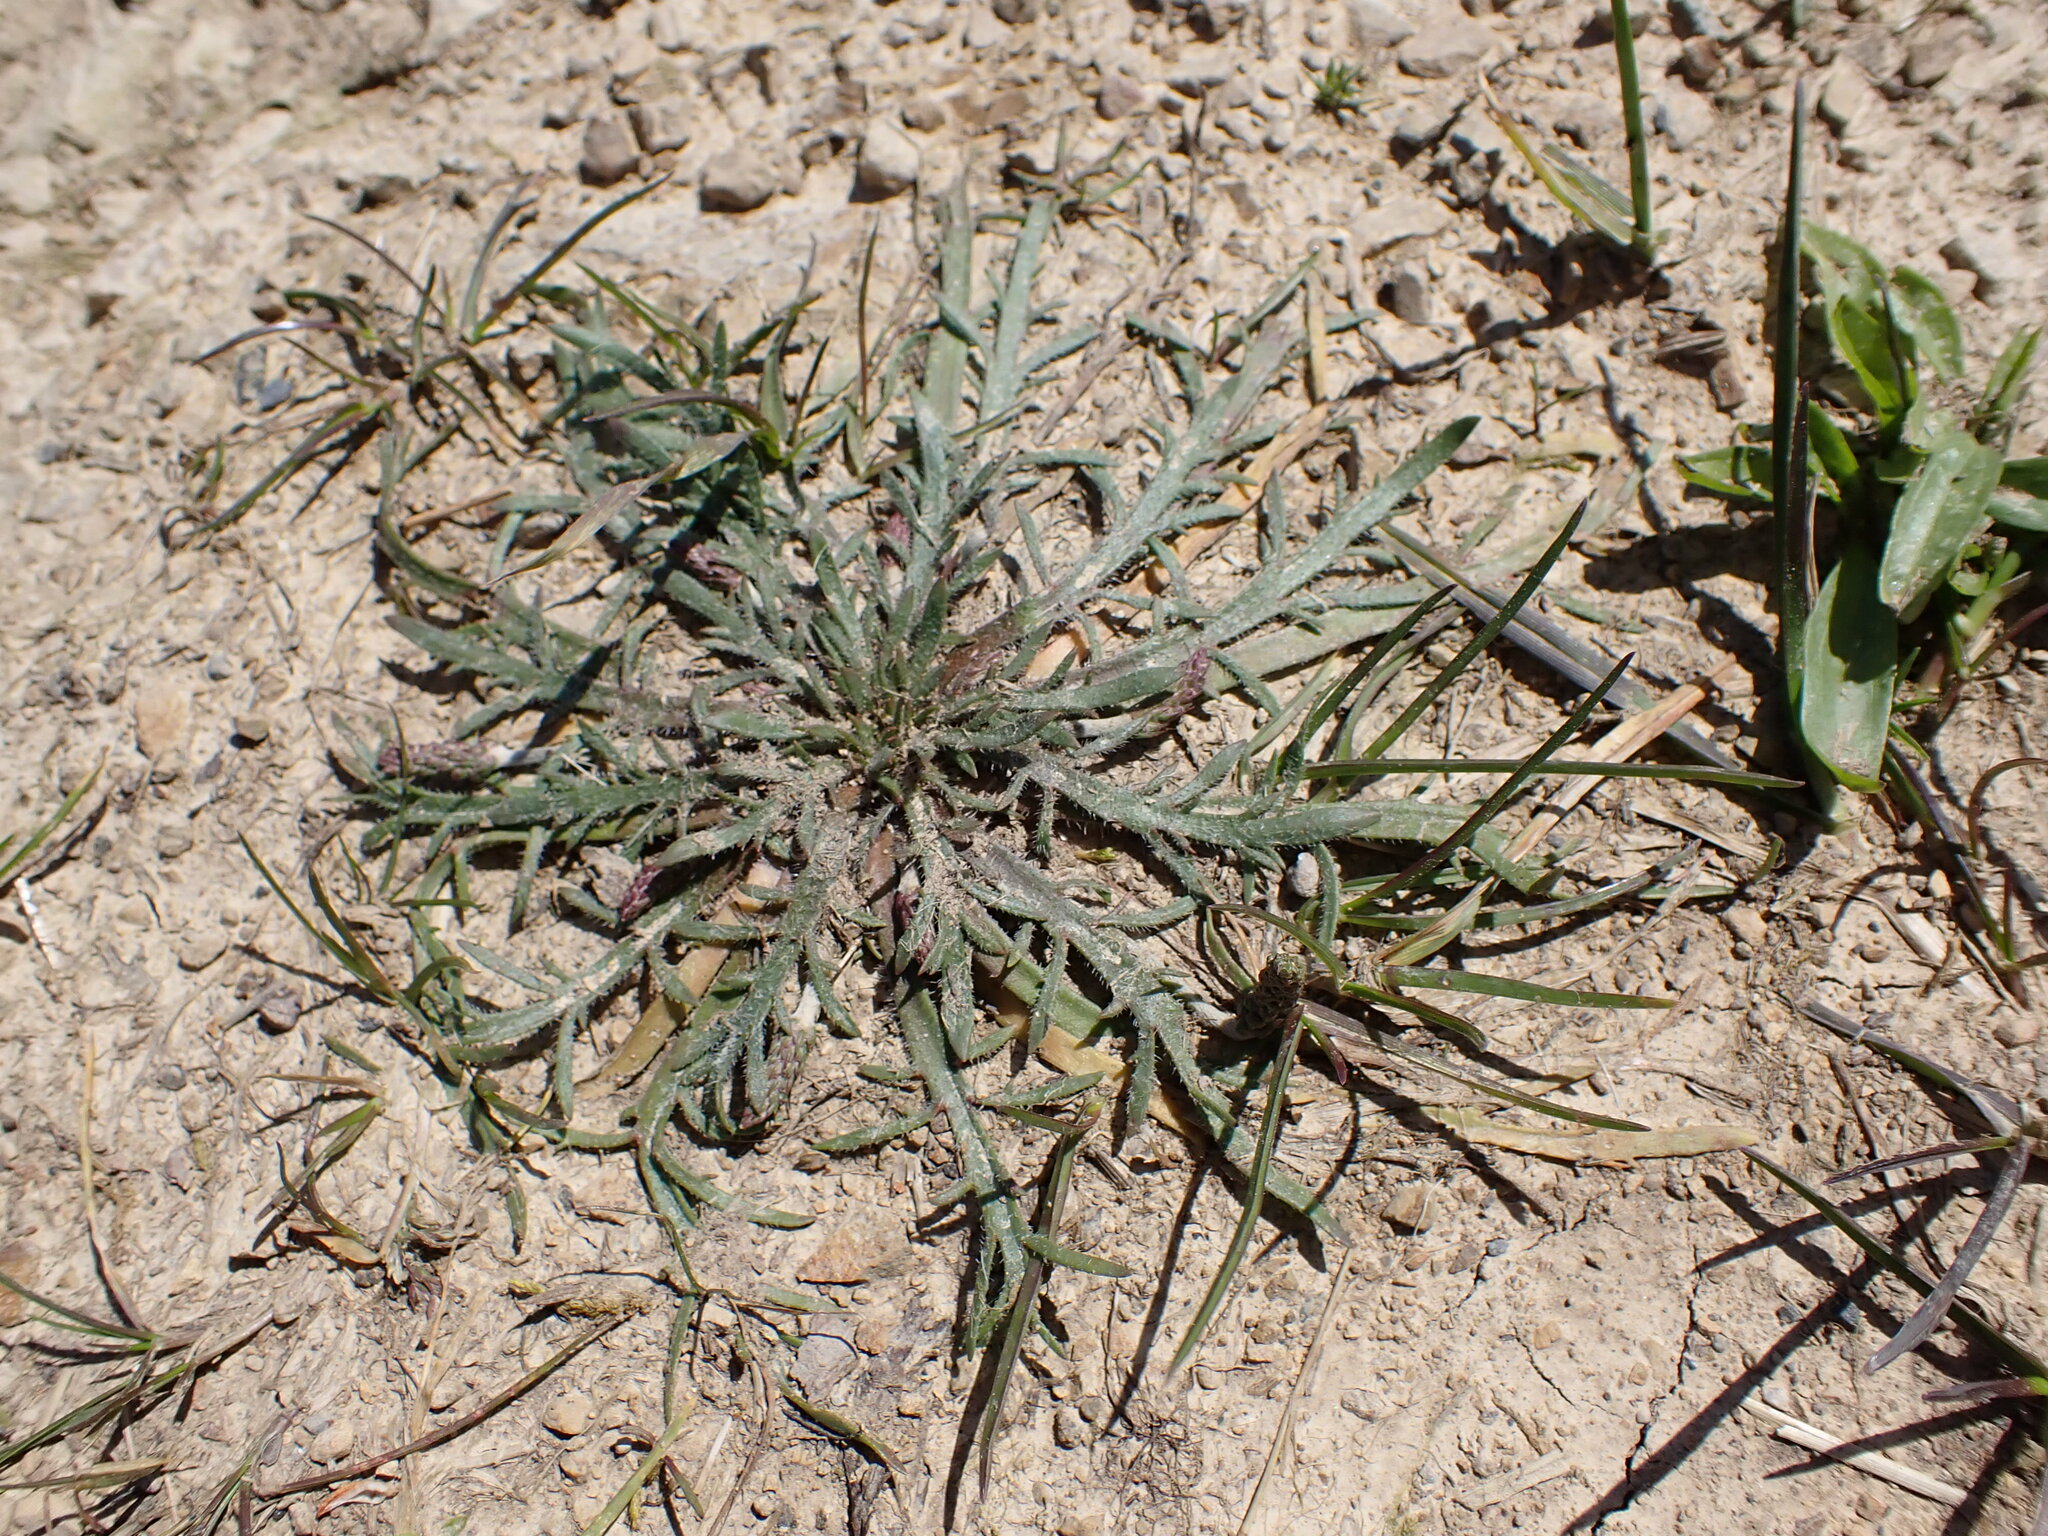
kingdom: Plantae
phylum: Tracheophyta
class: Magnoliopsida
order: Lamiales
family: Plantaginaceae
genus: Plantago
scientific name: Plantago coronopus
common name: Buck's-horn plantain
